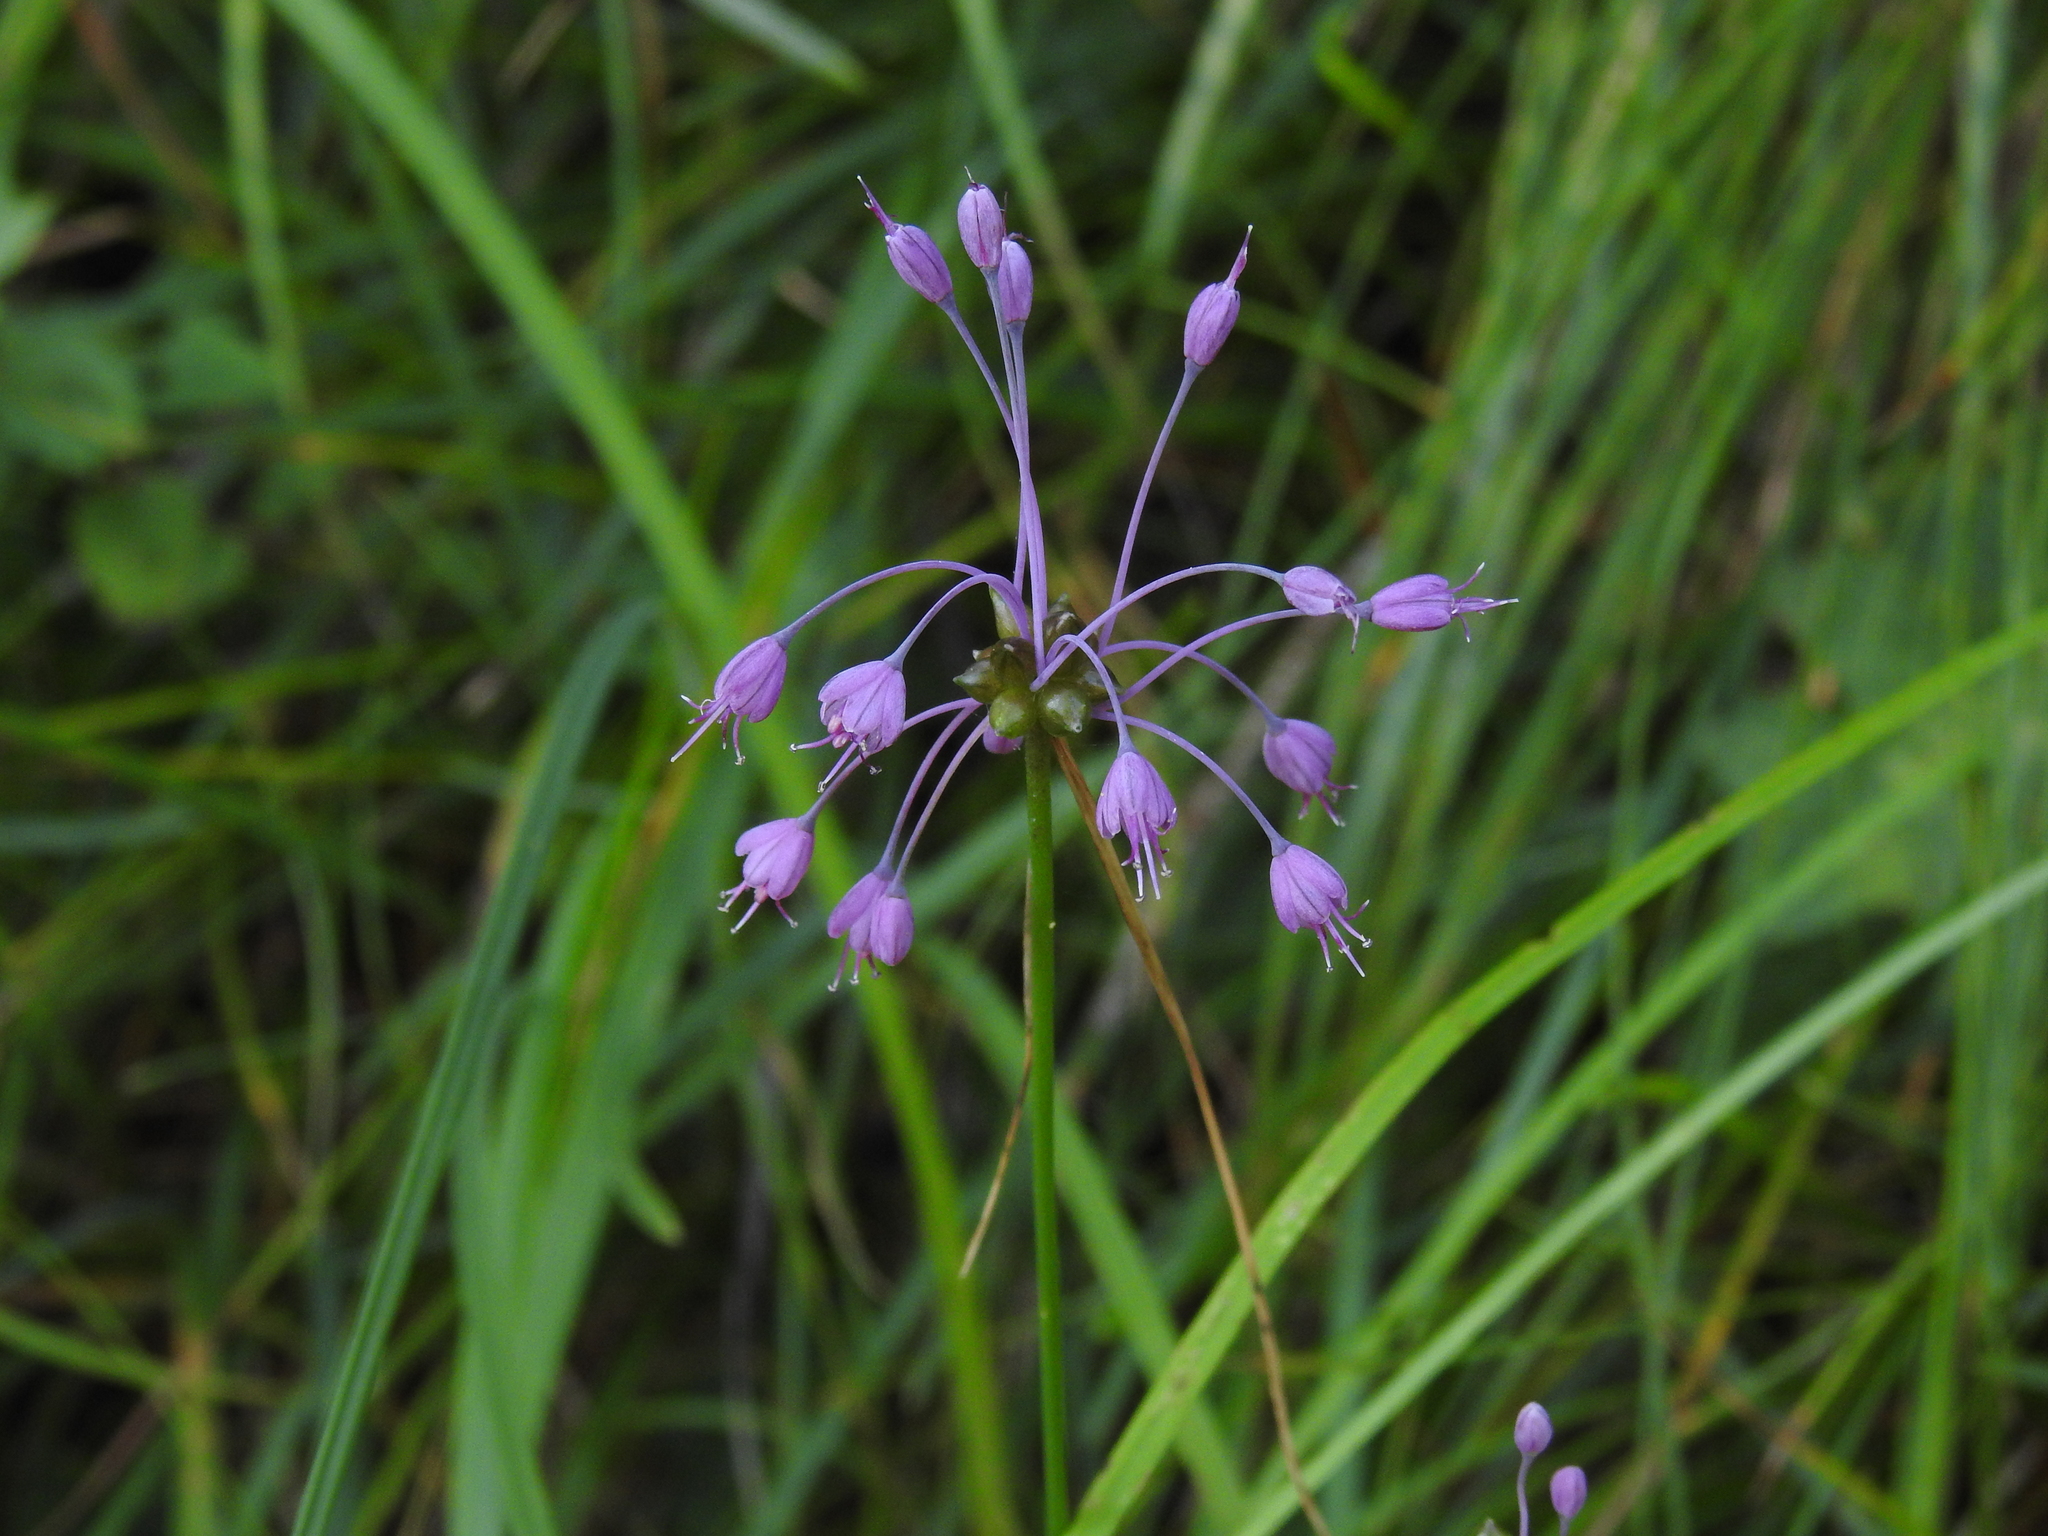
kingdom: Plantae
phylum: Tracheophyta
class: Liliopsida
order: Asparagales
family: Amaryllidaceae
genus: Allium
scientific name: Allium carinatum
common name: Keeled garlic
